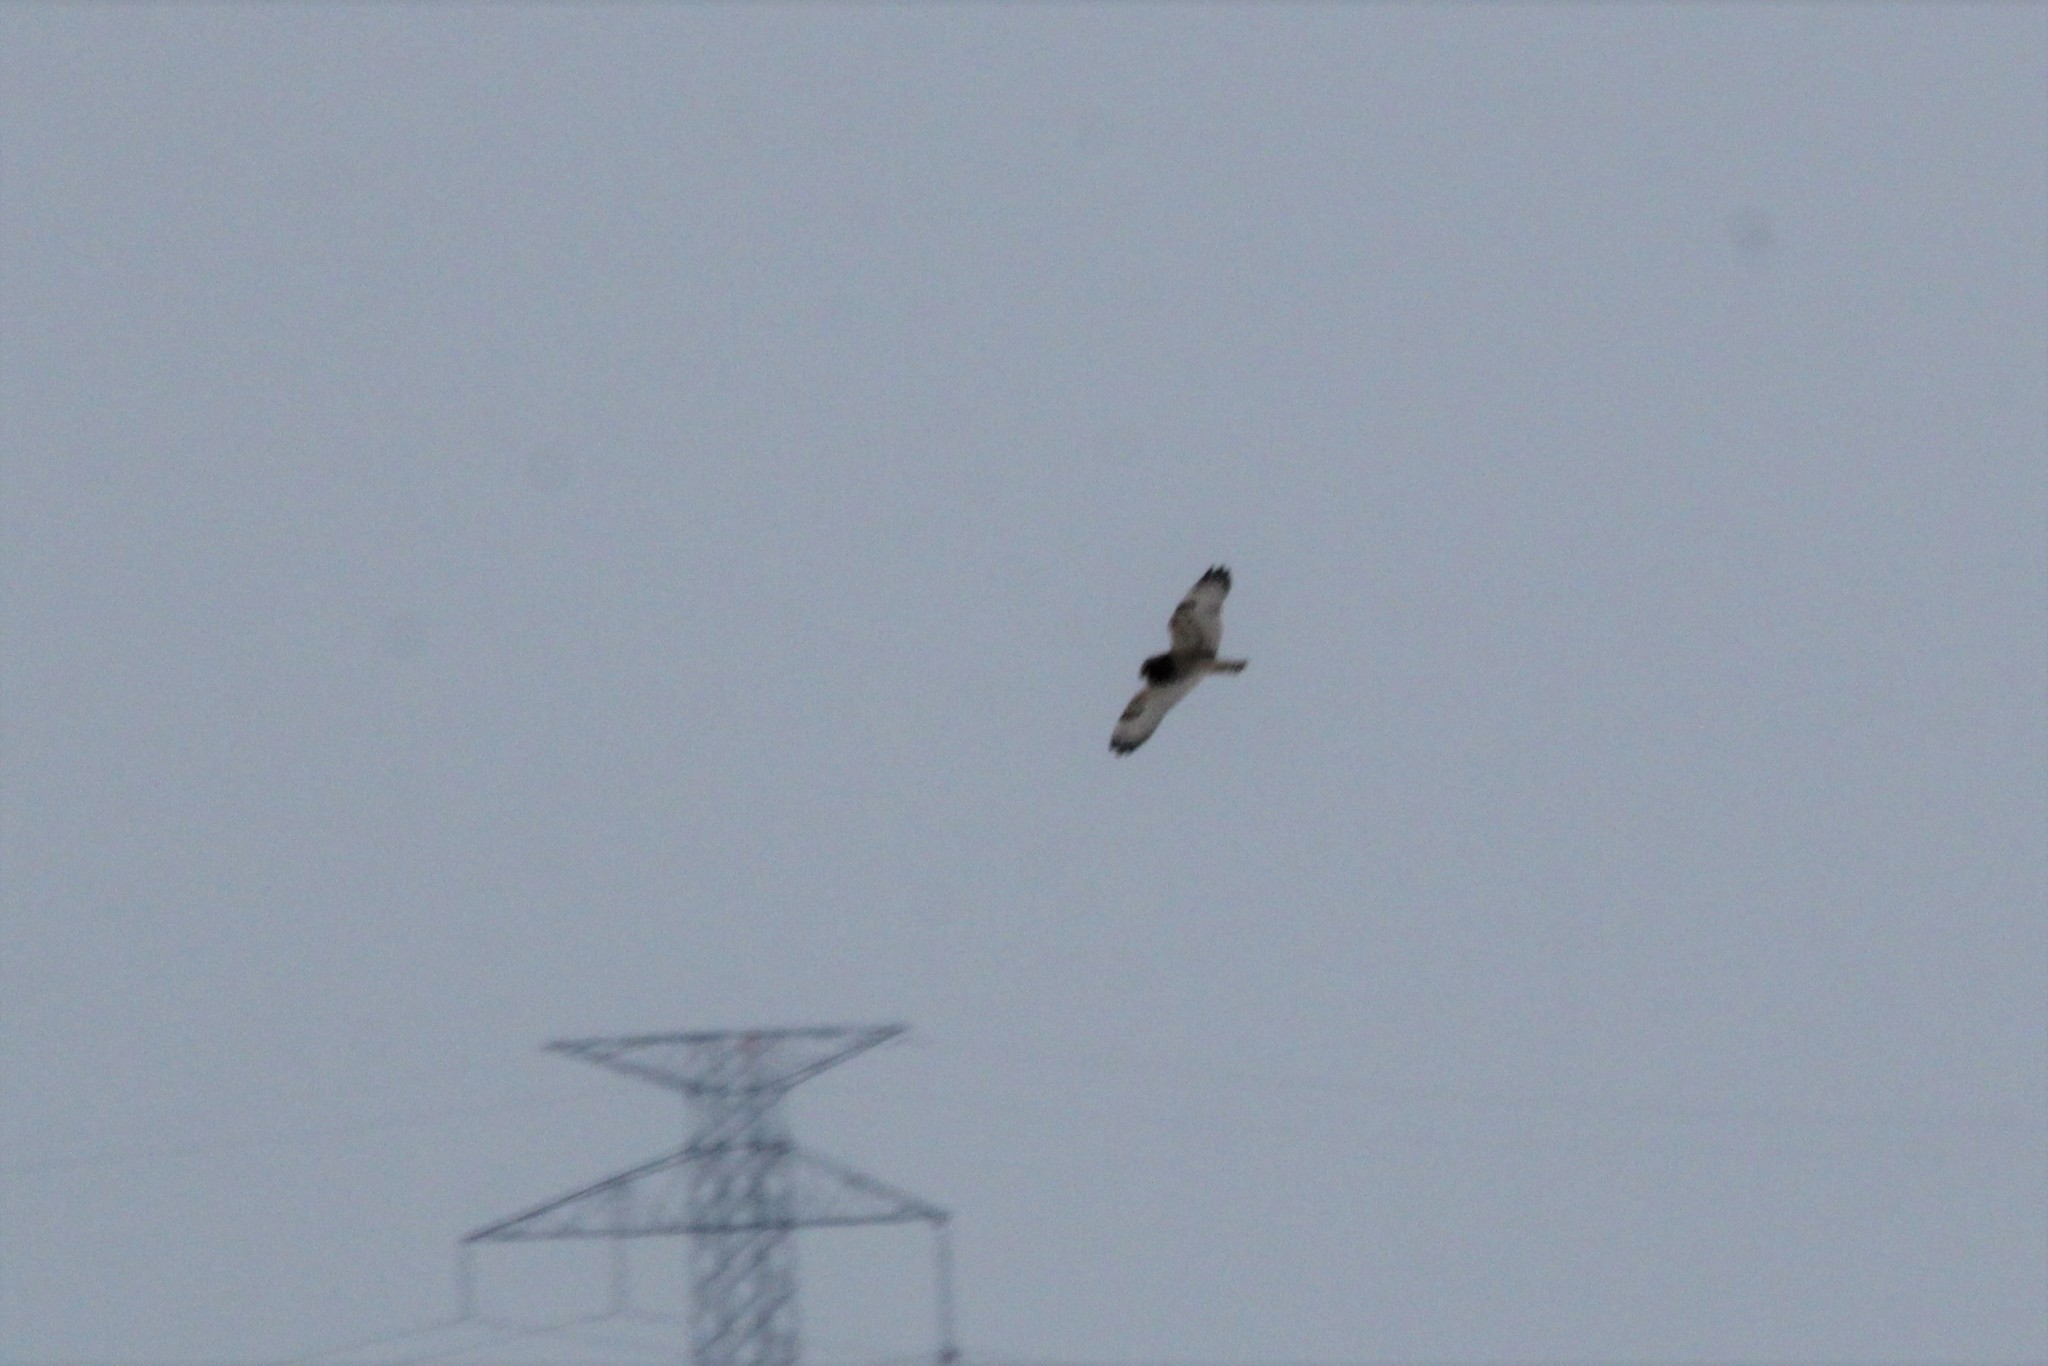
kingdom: Animalia
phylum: Chordata
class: Aves
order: Strigiformes
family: Strigidae
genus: Asio
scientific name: Asio flammeus
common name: Short-eared owl
